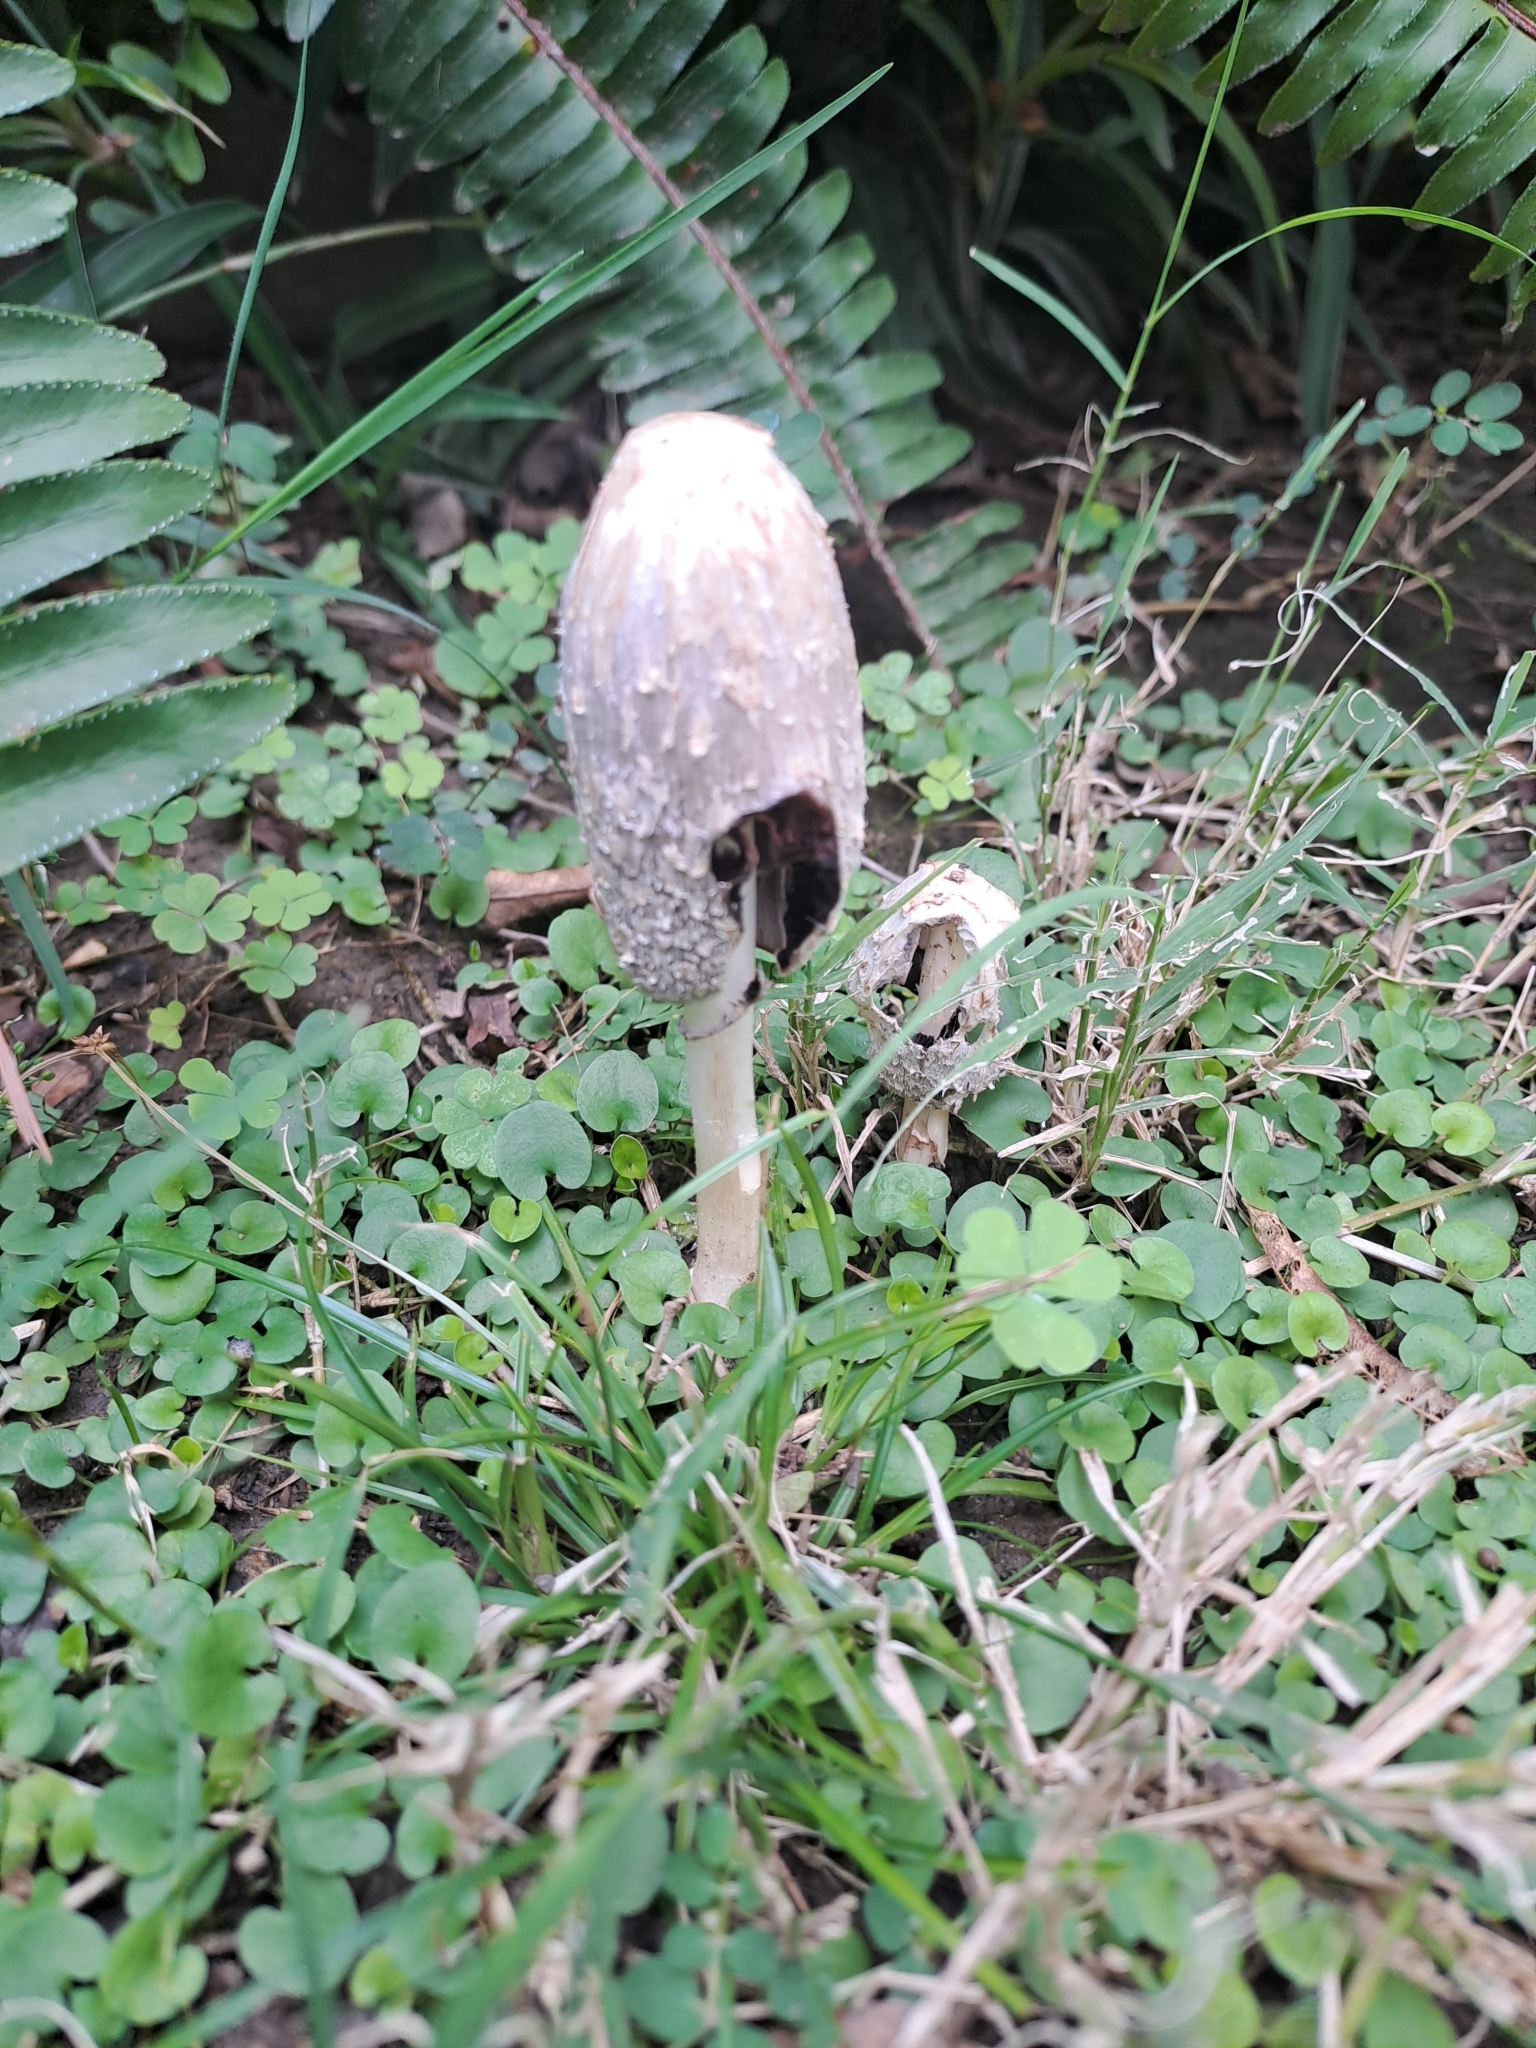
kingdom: Fungi
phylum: Basidiomycota
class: Agaricomycetes
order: Agaricales
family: Agaricaceae
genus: Coprinus
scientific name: Coprinus comatus
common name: Lawyer's wig
